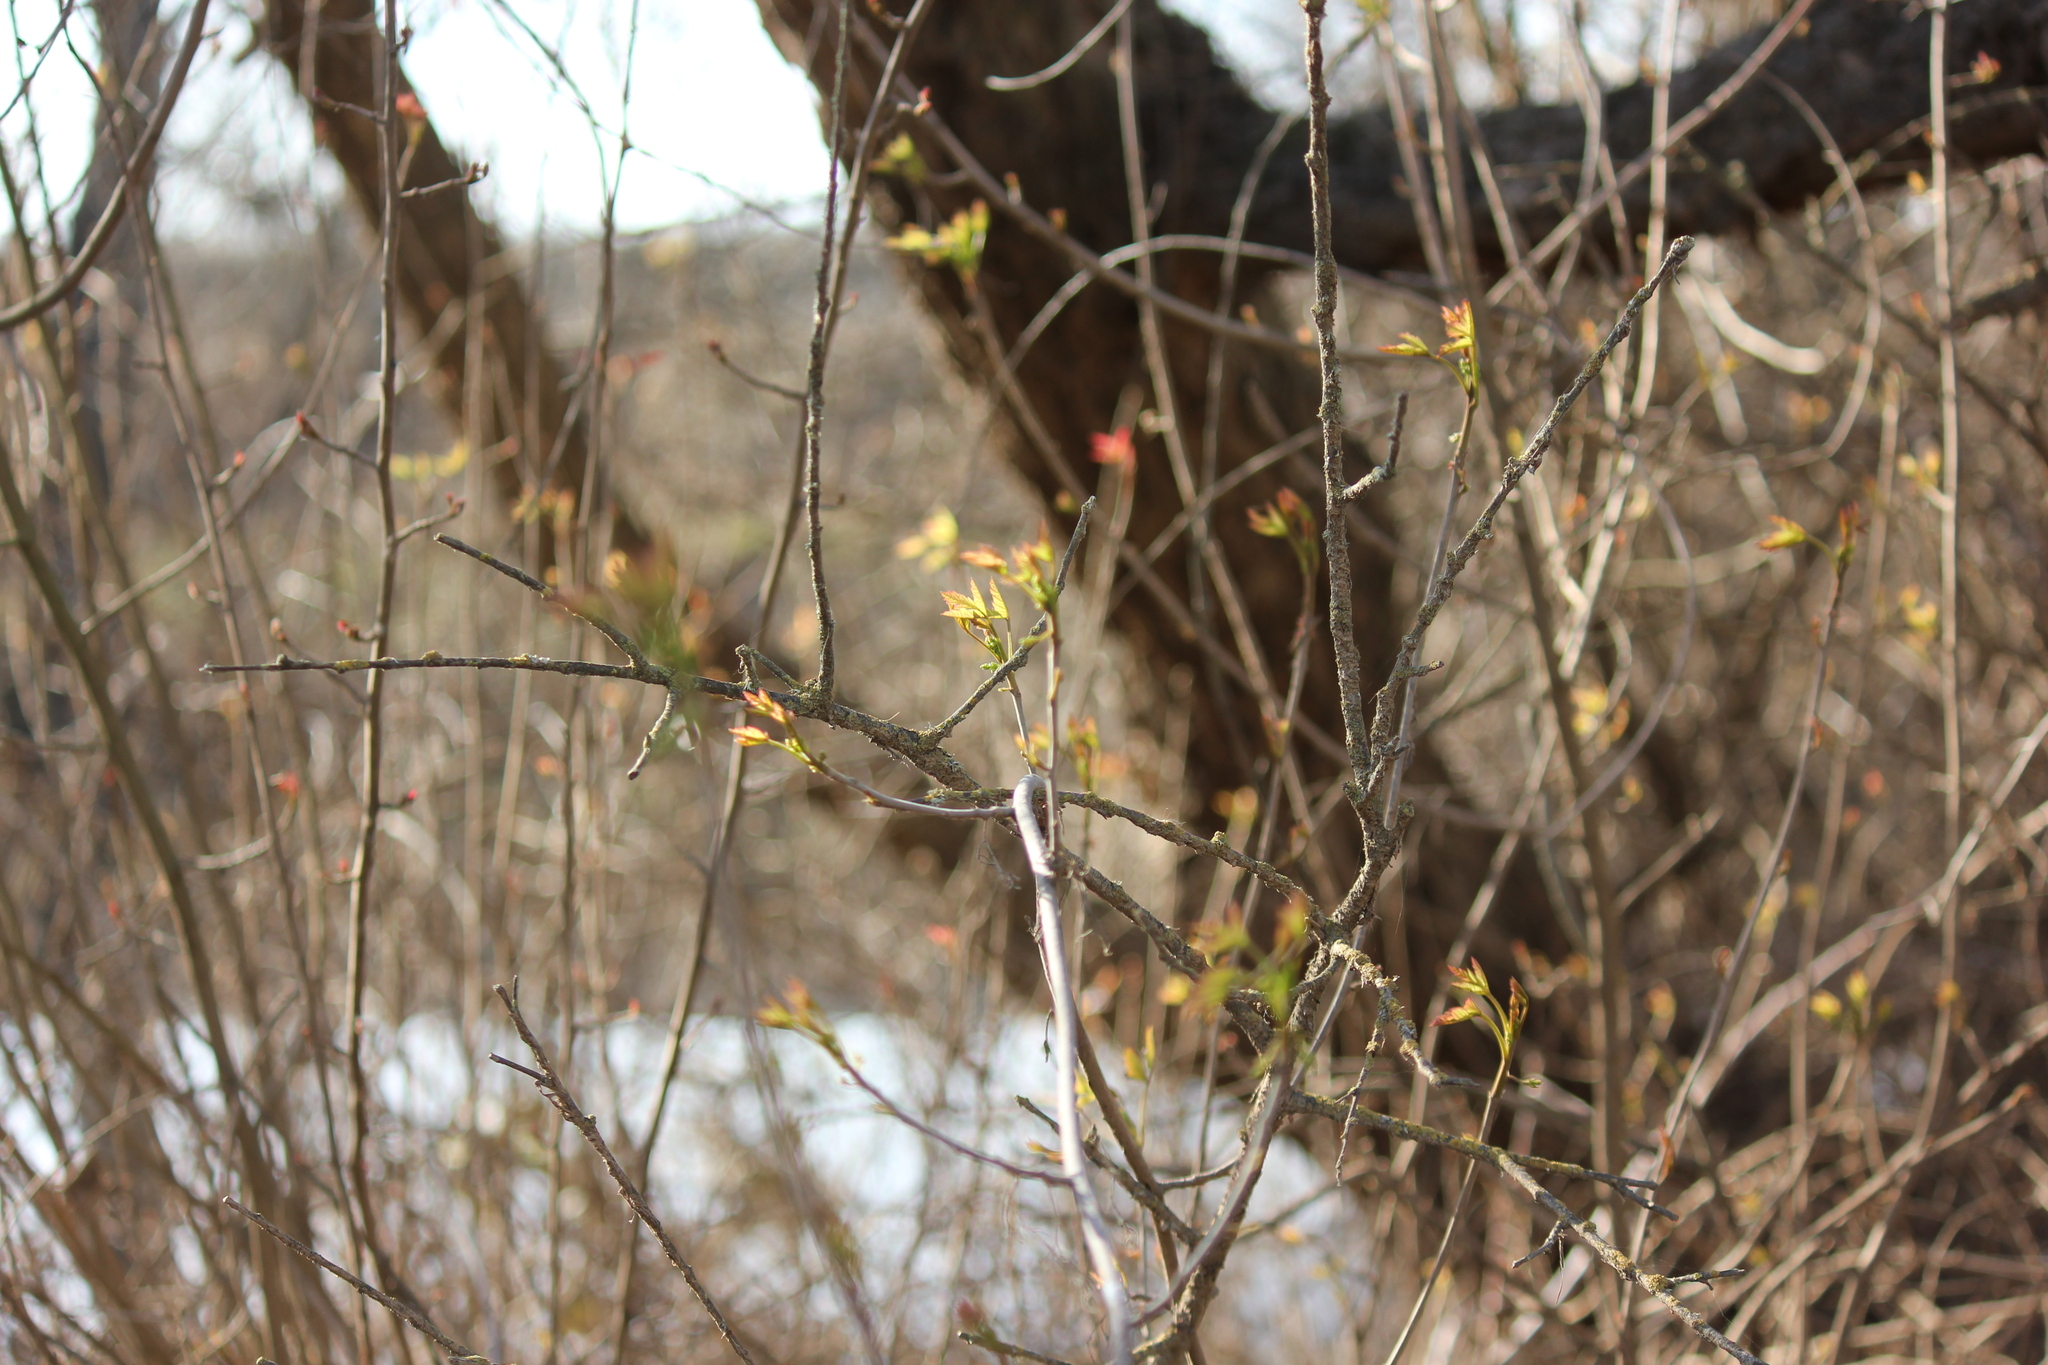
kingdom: Plantae
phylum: Tracheophyta
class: Magnoliopsida
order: Sapindales
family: Anacardiaceae
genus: Toxicodendron
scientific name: Toxicodendron diversilobum
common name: Pacific poison-oak
